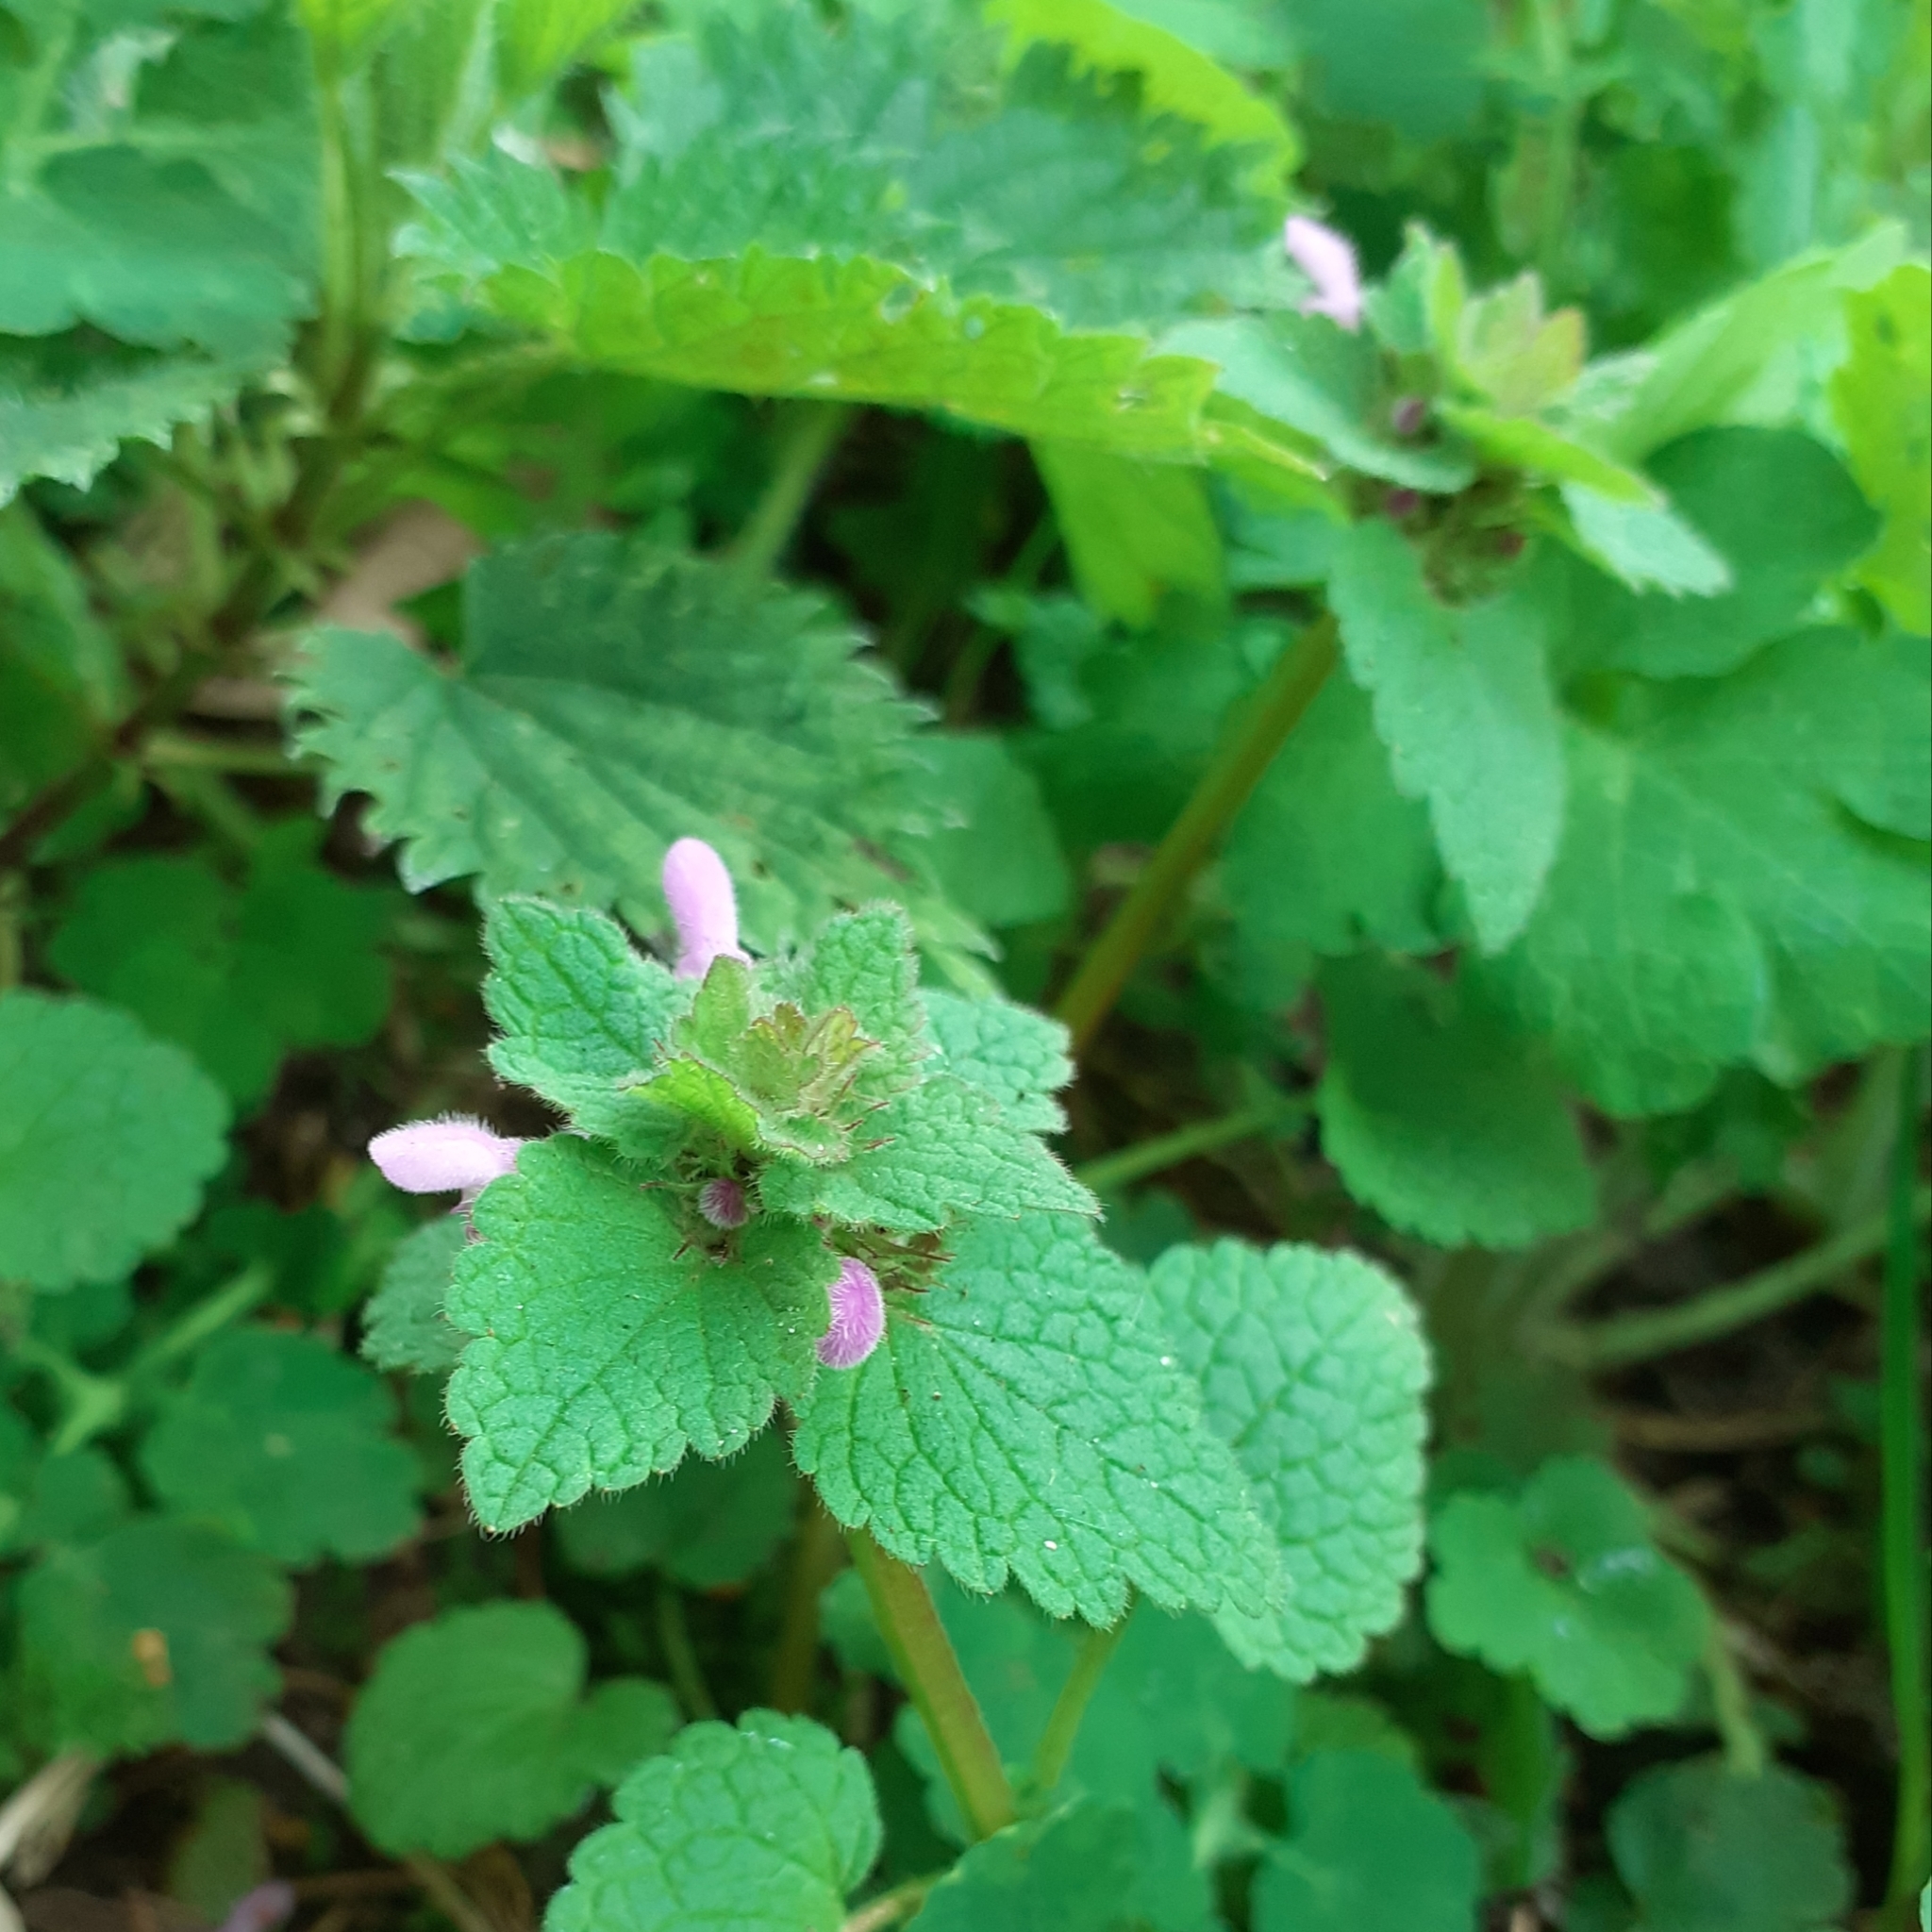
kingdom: Plantae
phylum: Tracheophyta
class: Magnoliopsida
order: Lamiales
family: Lamiaceae
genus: Lamium
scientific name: Lamium purpureum
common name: Red dead-nettle
